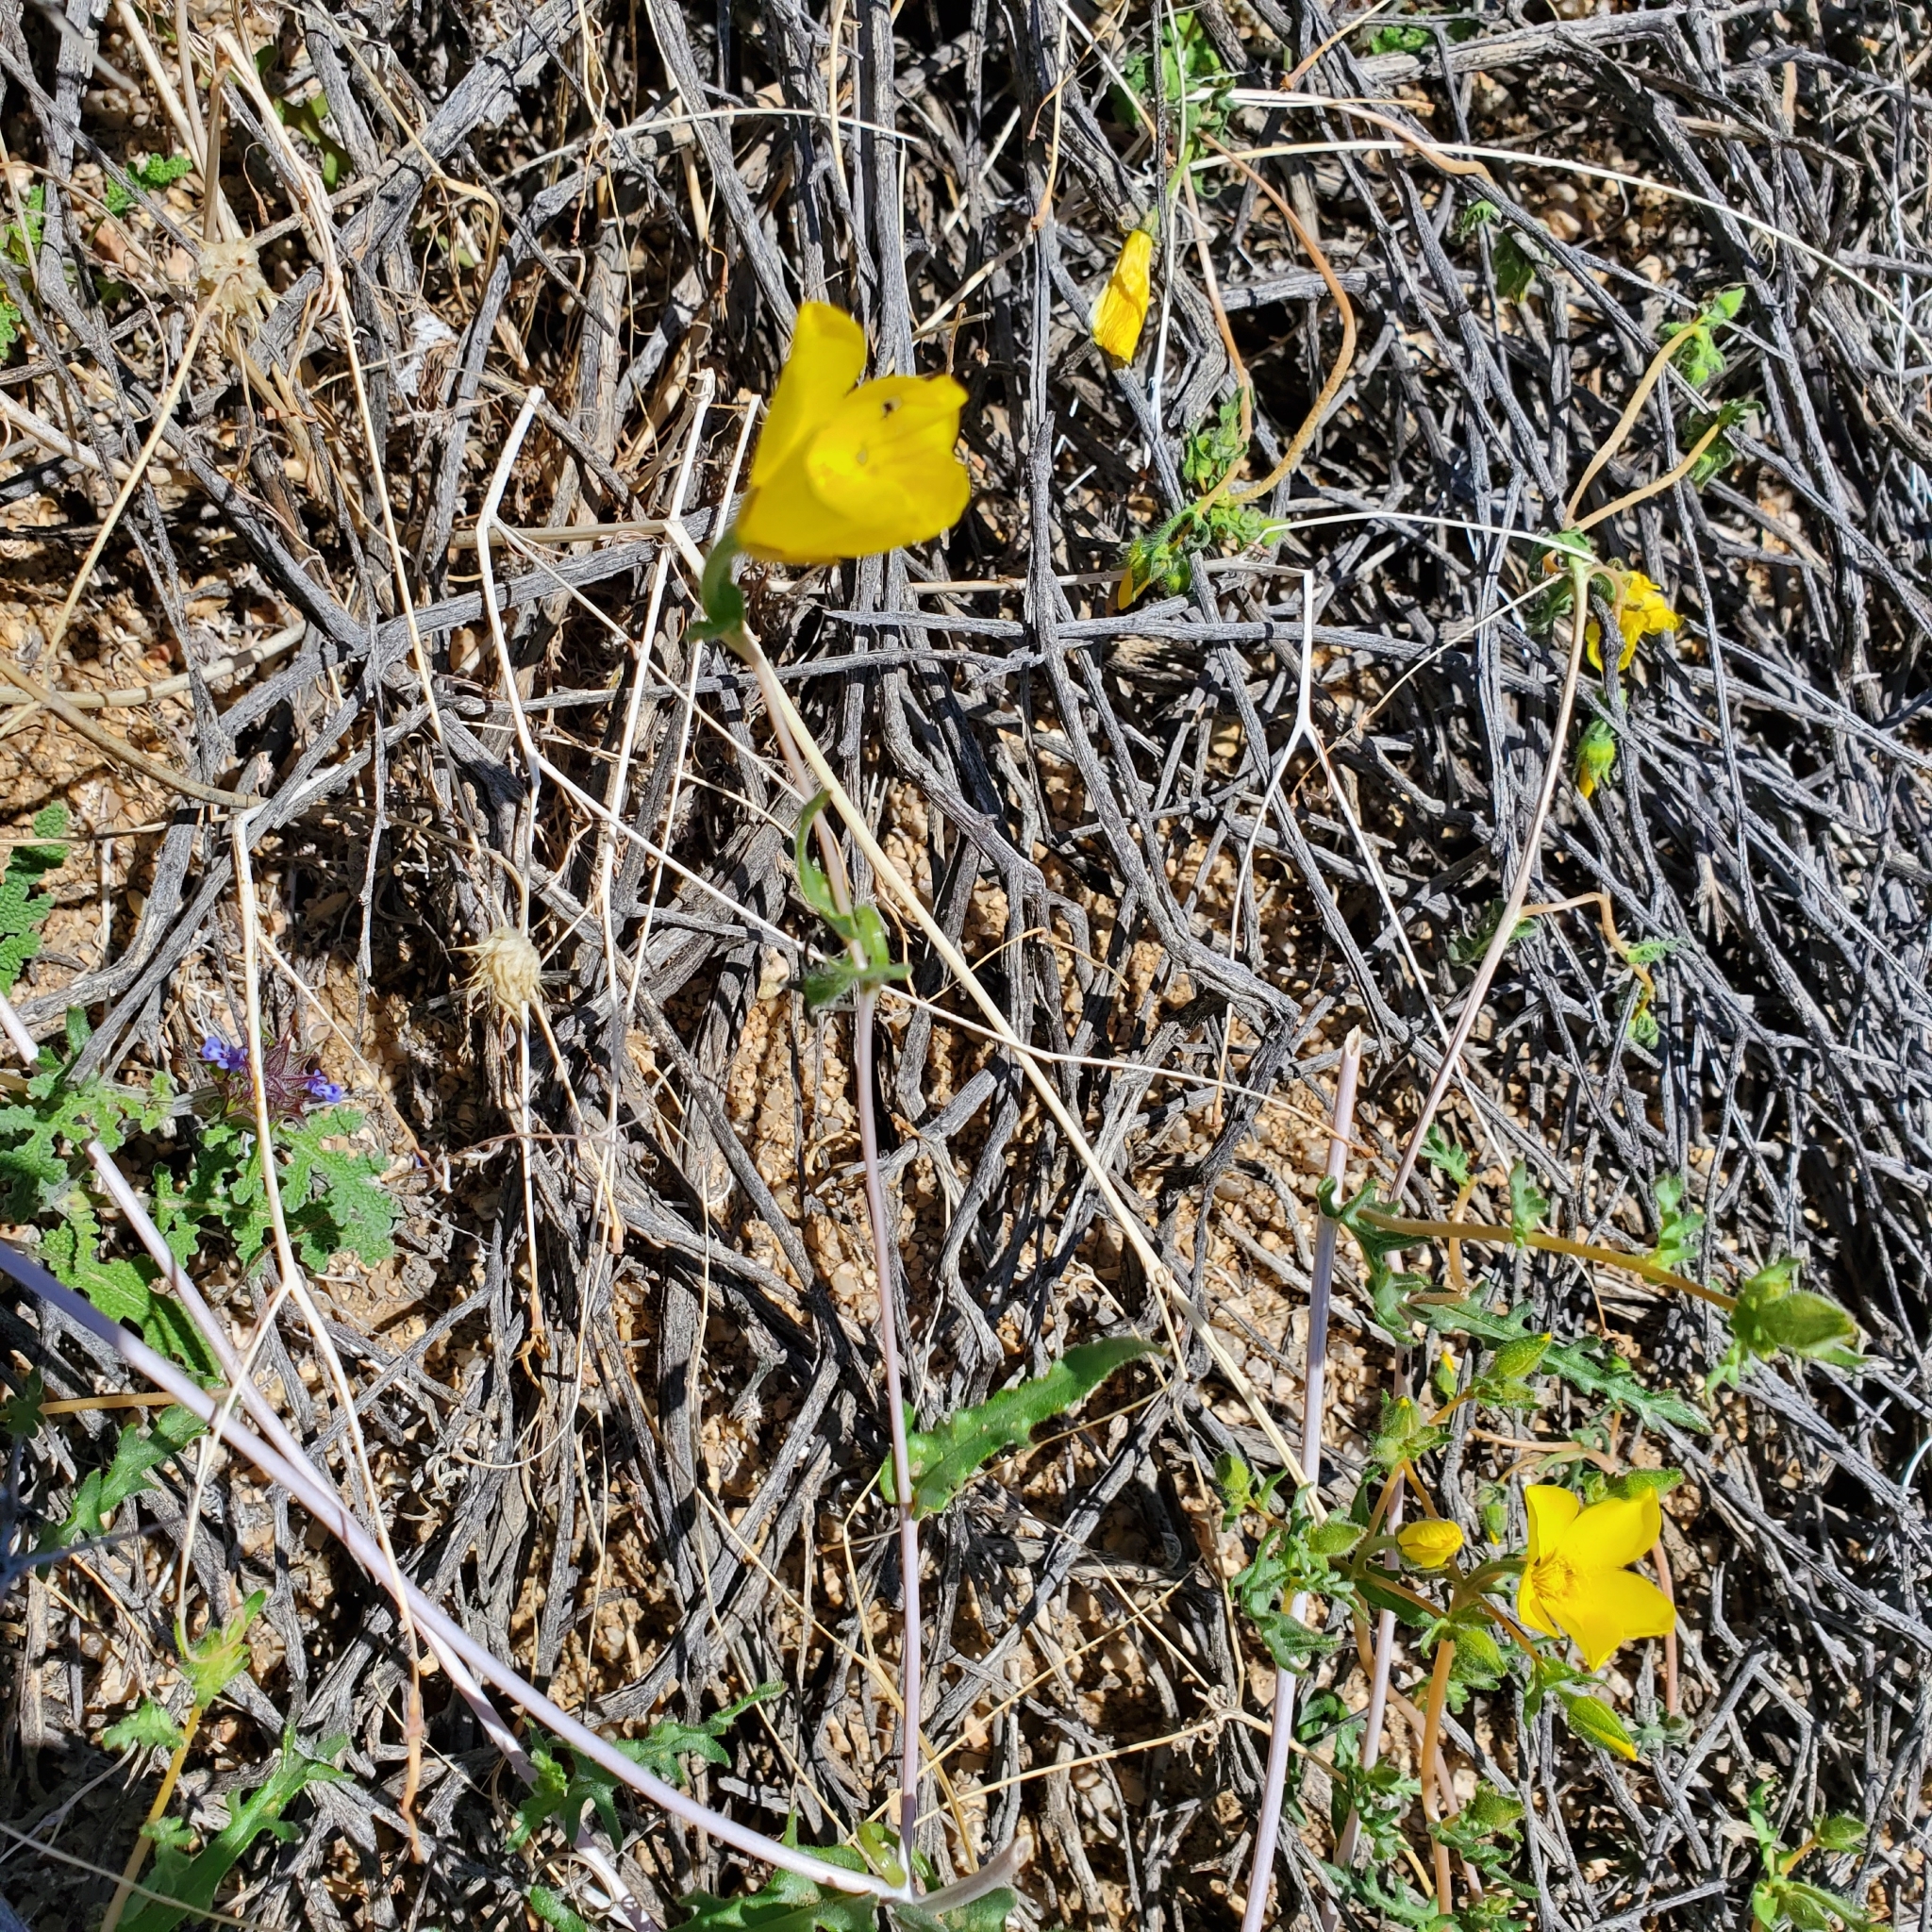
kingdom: Plantae
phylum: Tracheophyta
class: Magnoliopsida
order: Cornales
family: Loasaceae
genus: Mentzelia
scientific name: Mentzelia albicaulis
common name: White-stem blazingstar
